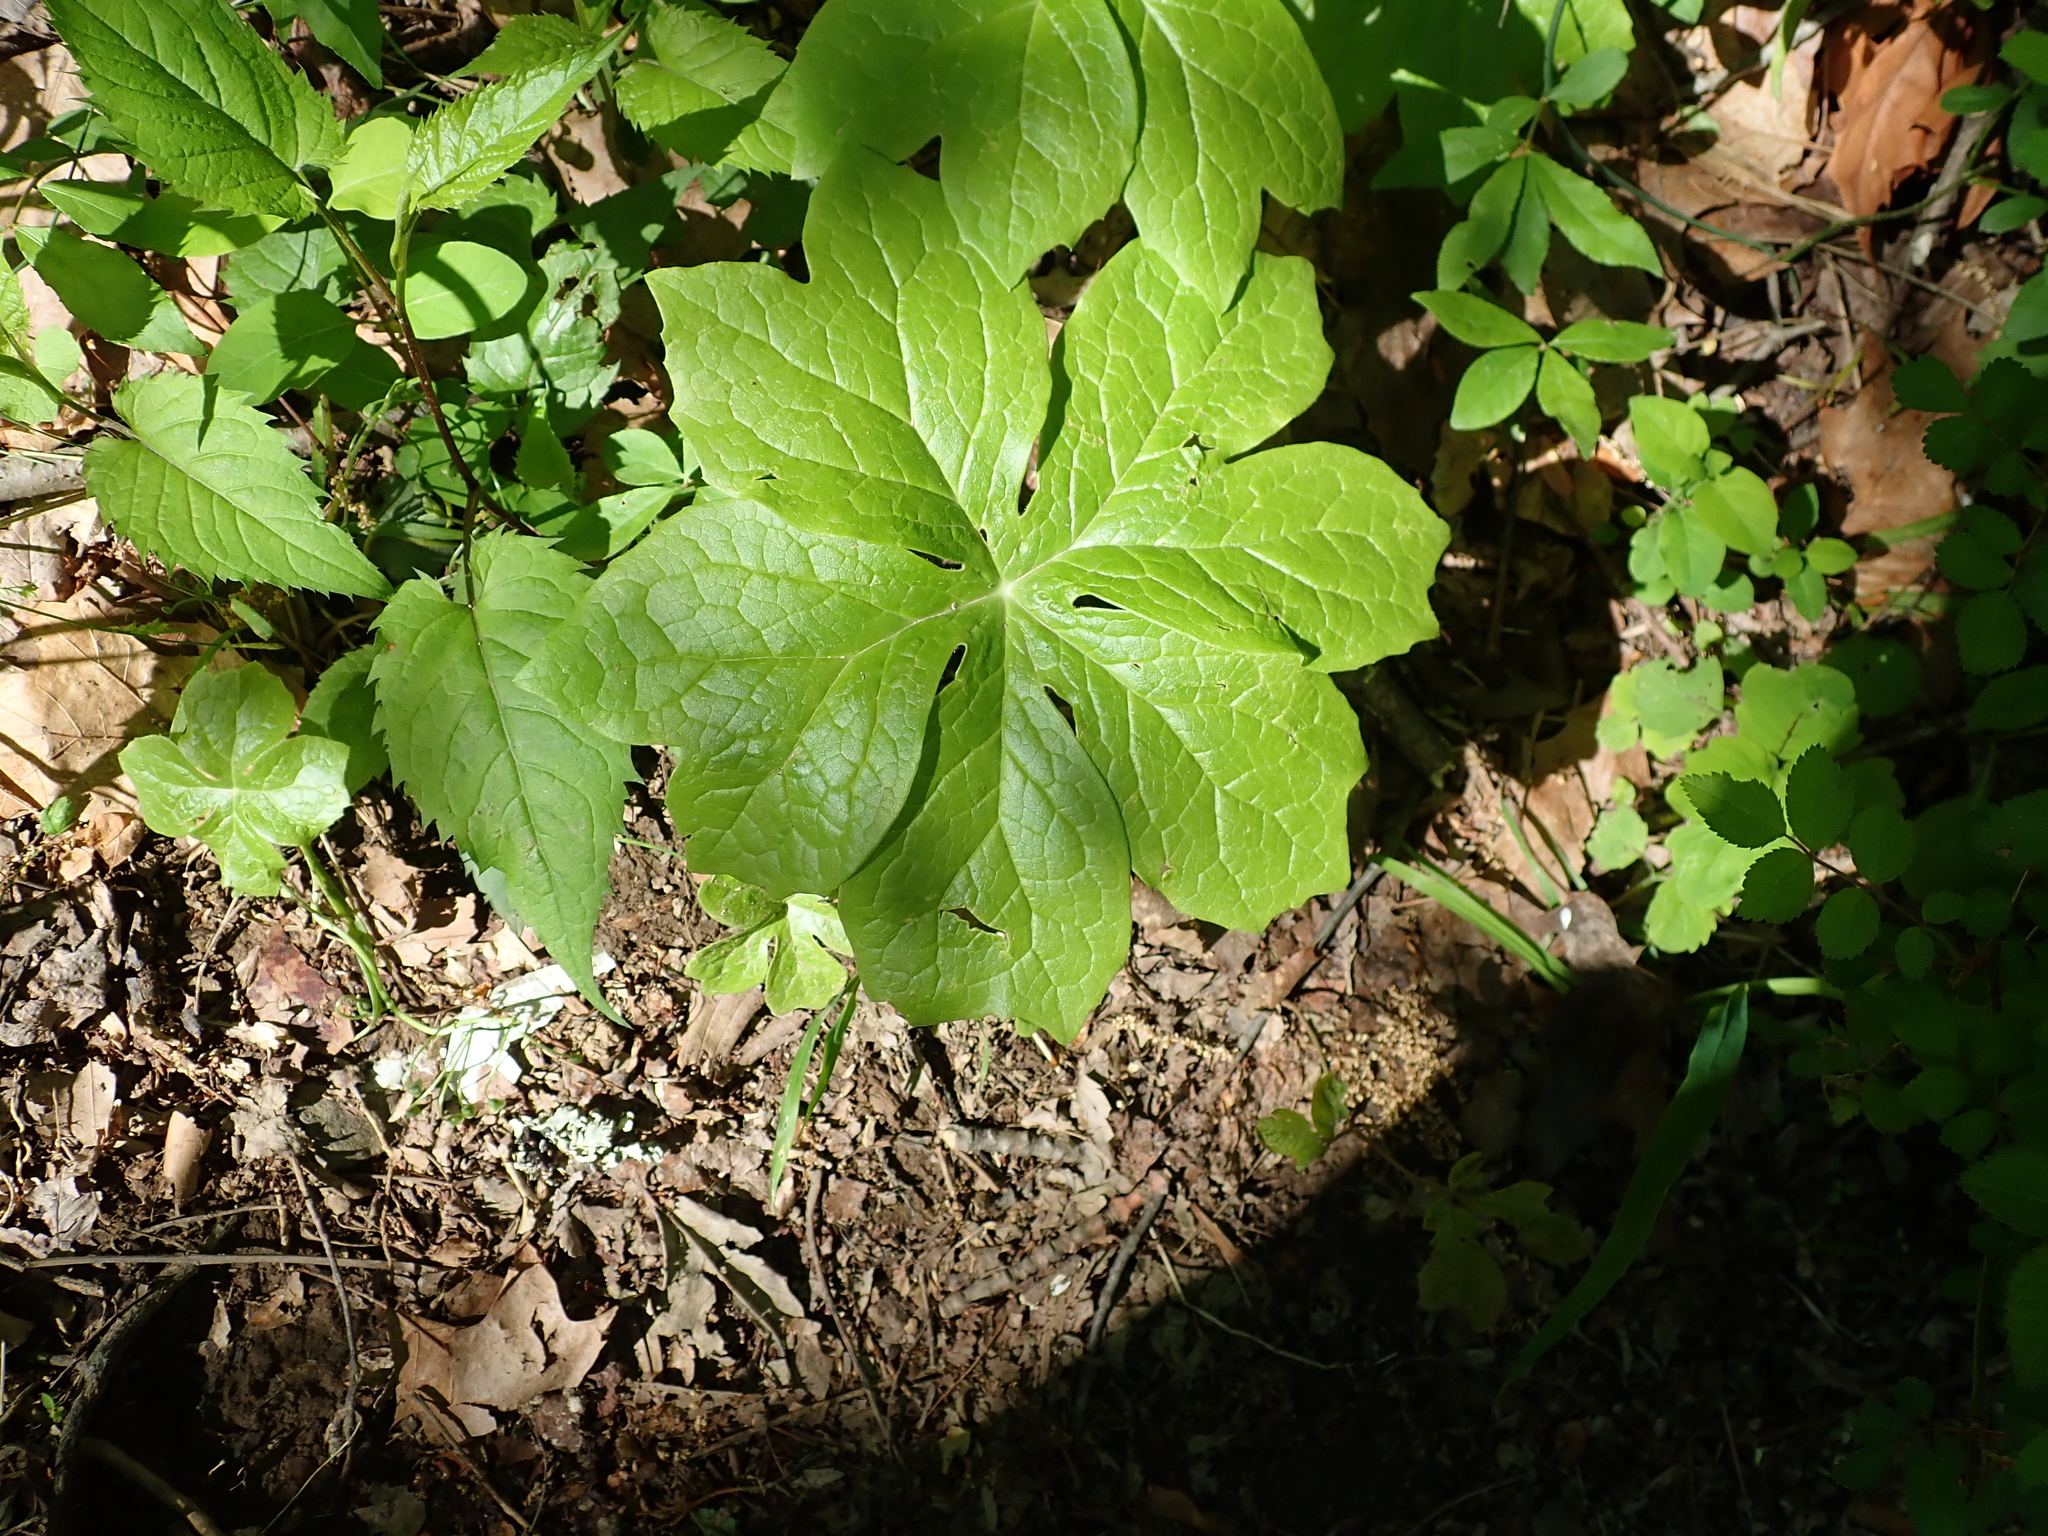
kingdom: Plantae
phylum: Tracheophyta
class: Magnoliopsida
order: Ranunculales
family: Berberidaceae
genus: Podophyllum
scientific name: Podophyllum peltatum
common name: Wild mandrake
